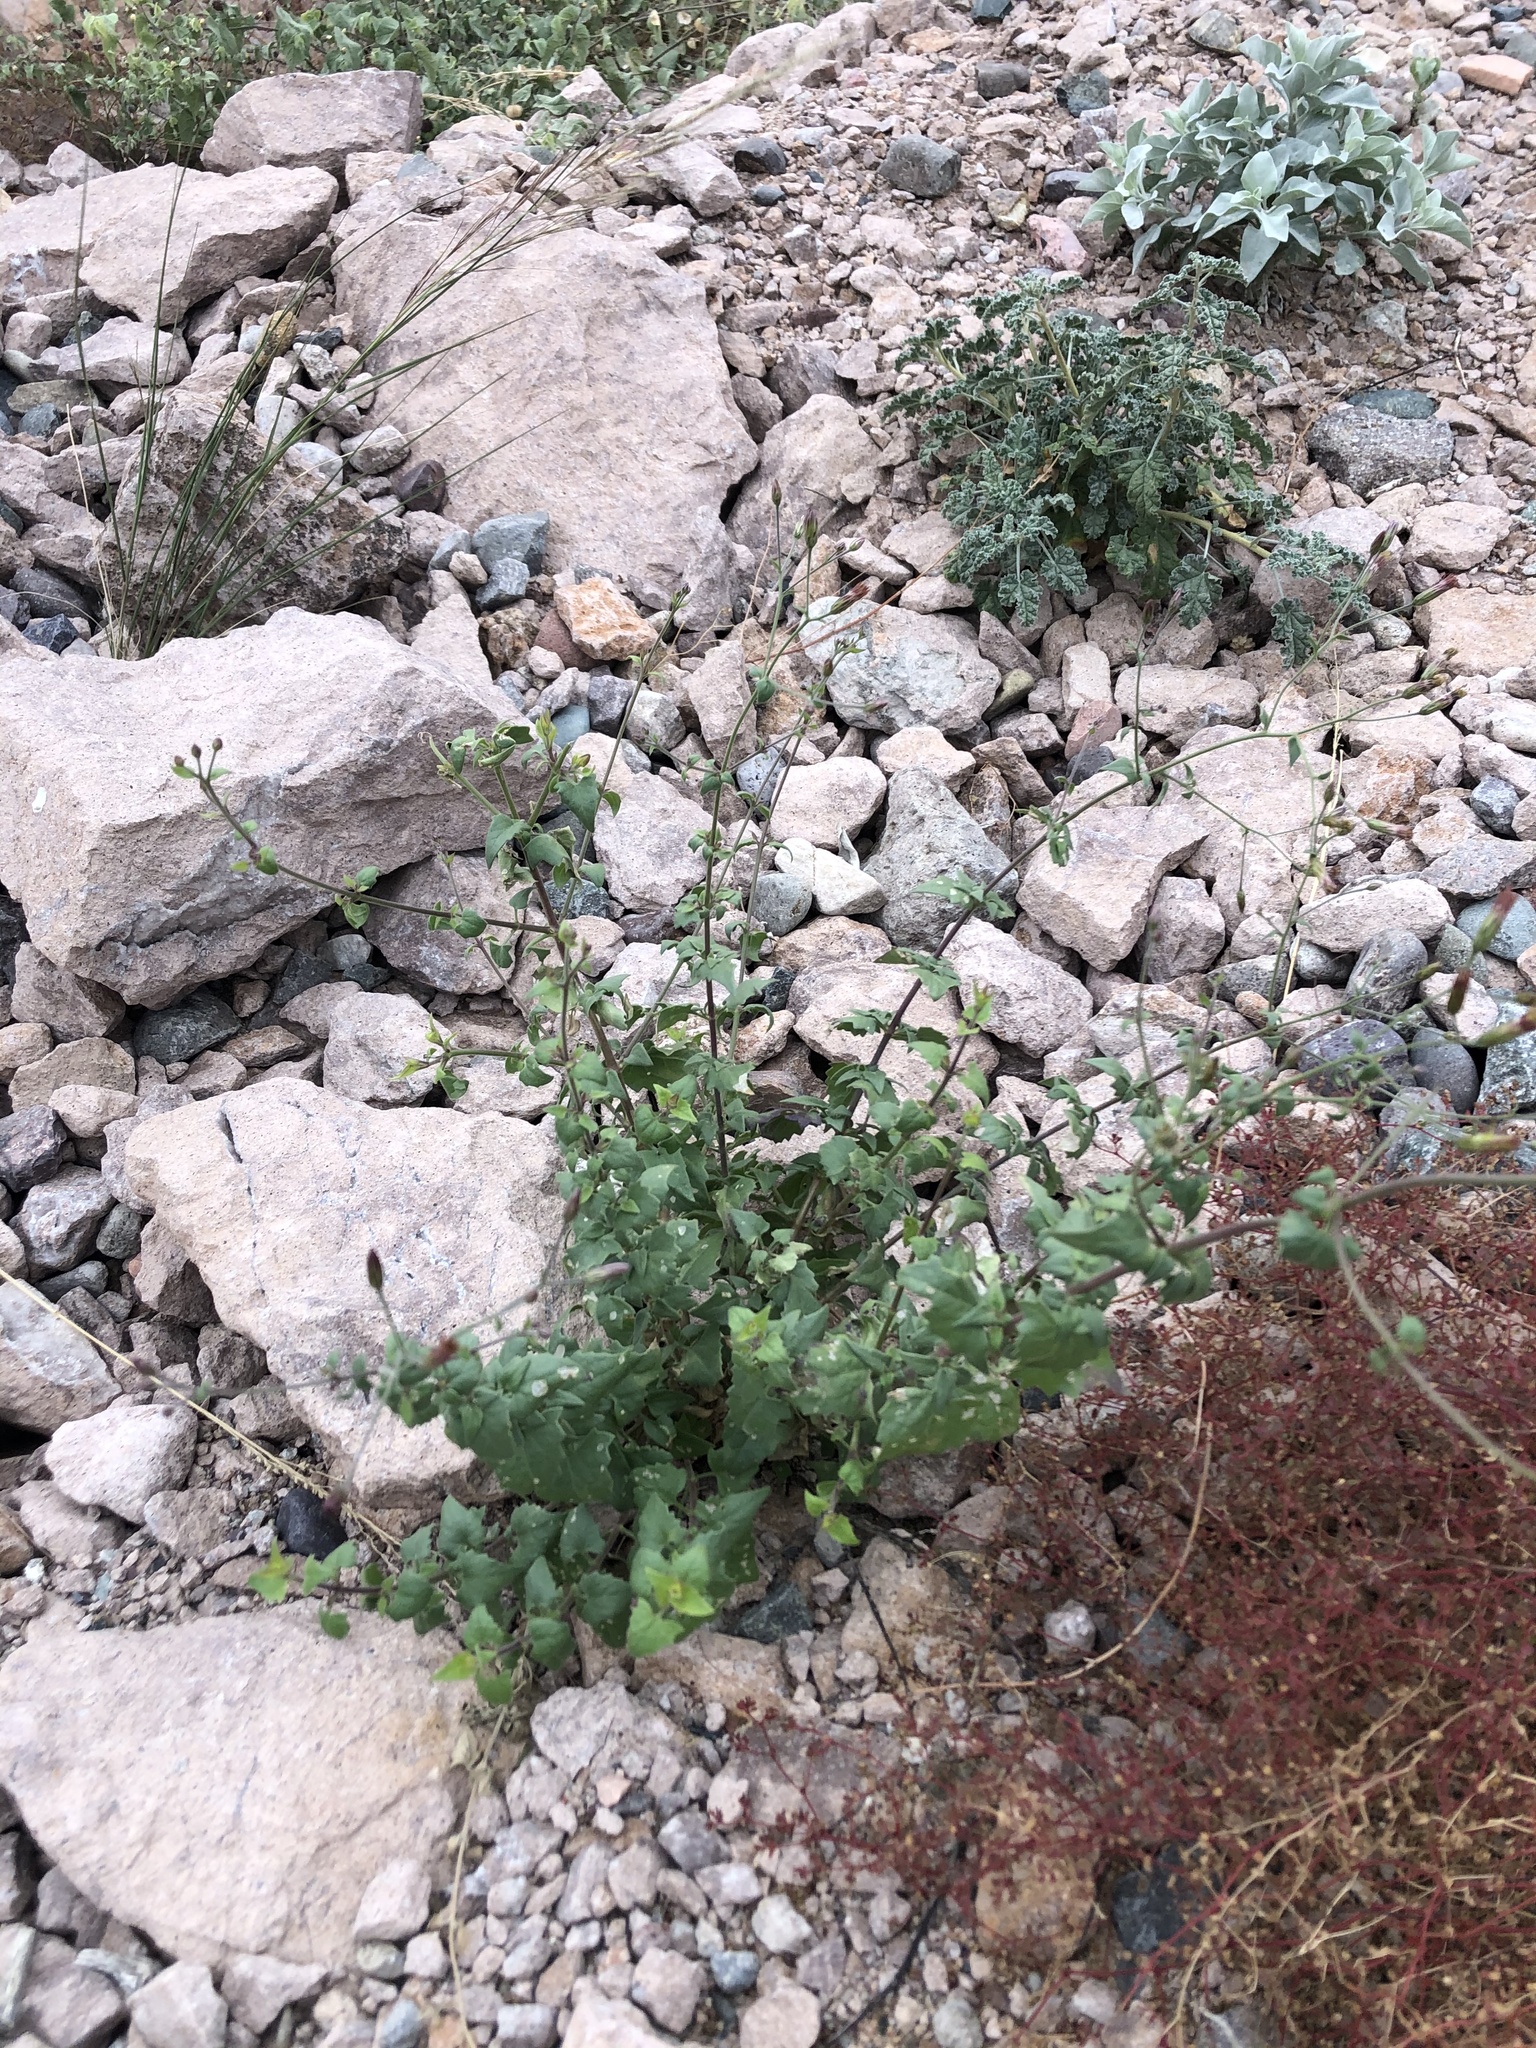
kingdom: Plantae
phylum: Tracheophyta
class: Magnoliopsida
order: Asterales
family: Asteraceae
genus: Brickellia
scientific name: Brickellia coulteri
